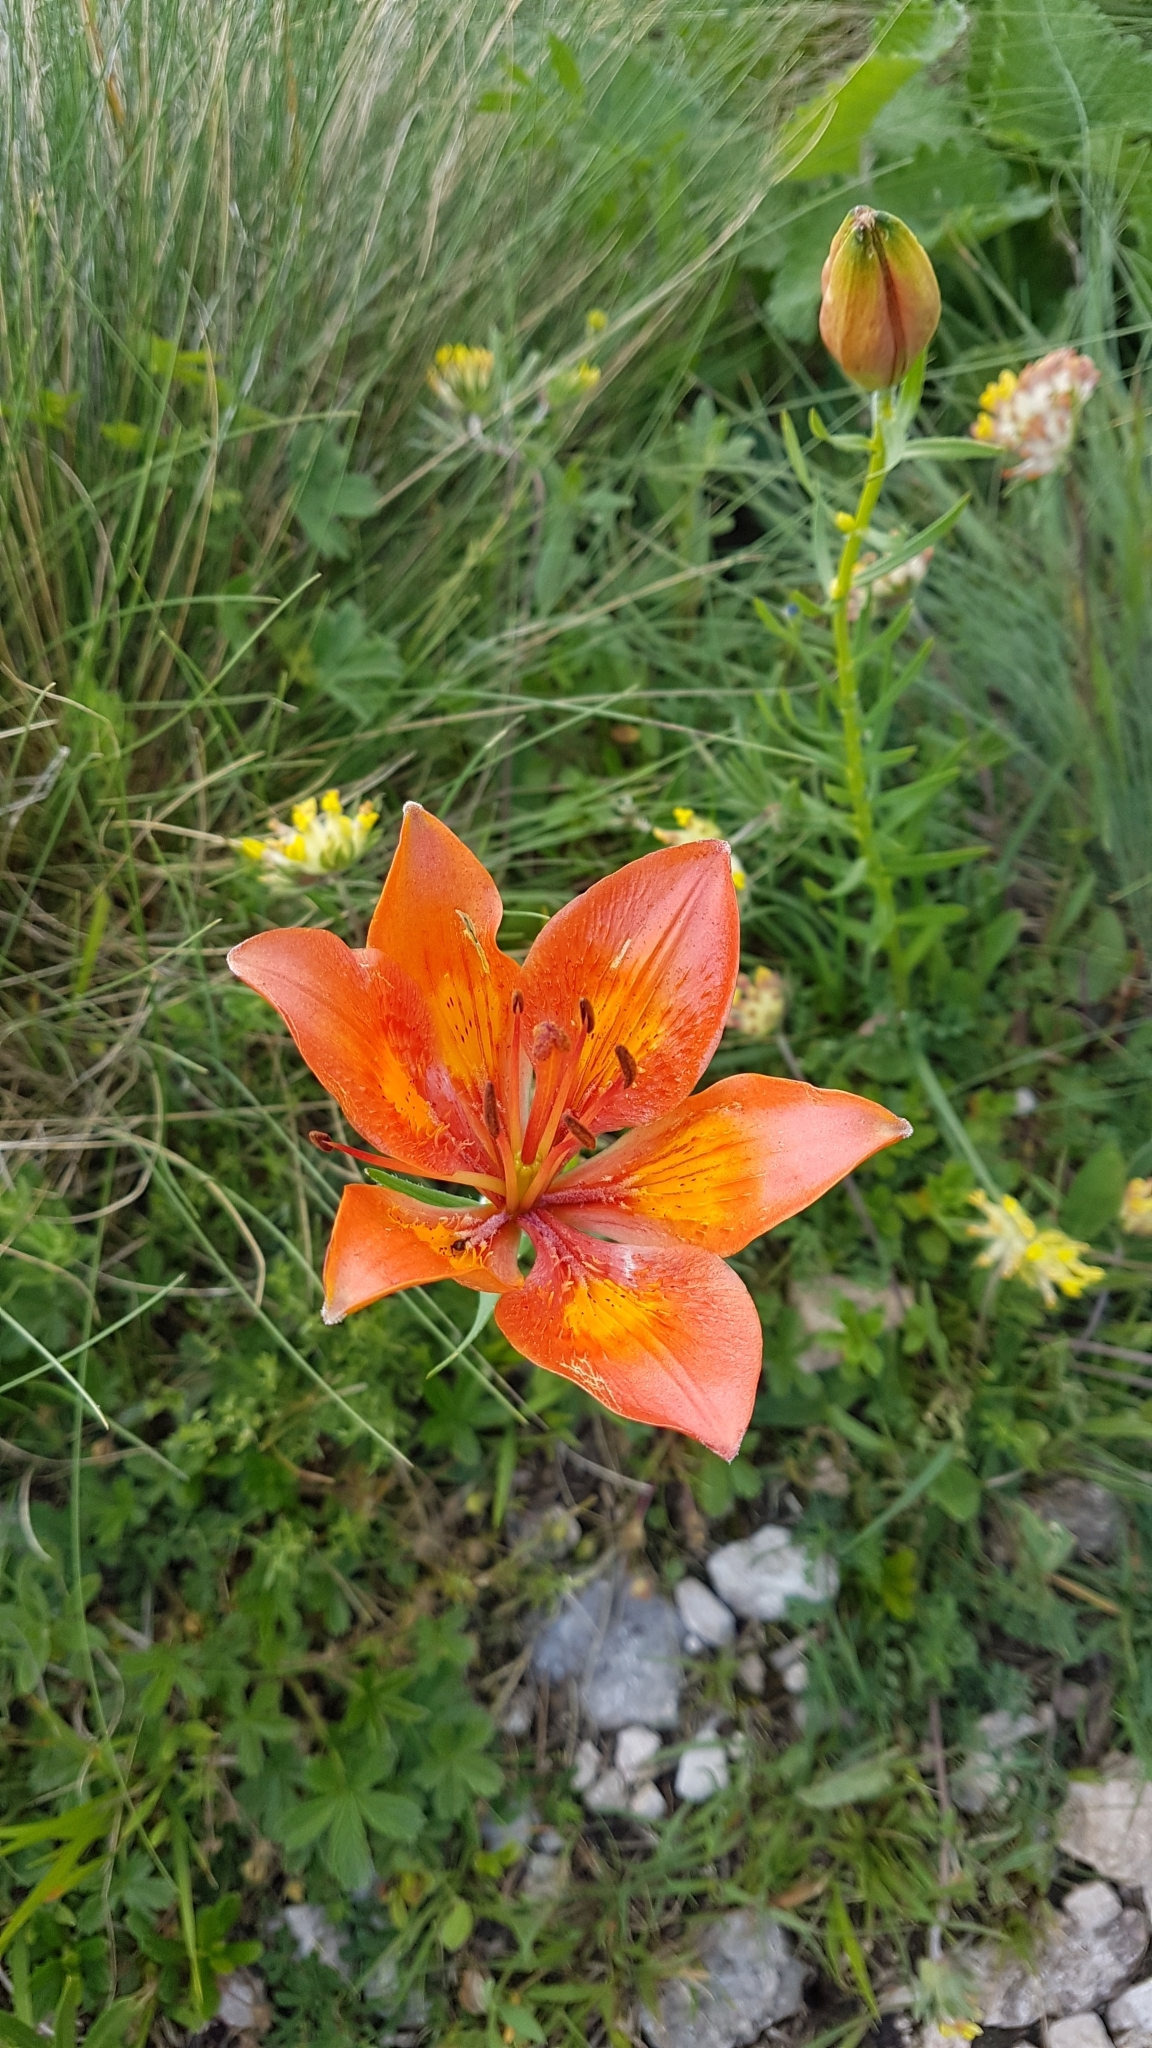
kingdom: Plantae
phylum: Tracheophyta
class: Liliopsida
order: Liliales
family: Liliaceae
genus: Lilium
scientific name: Lilium bulbiferum
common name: Orange lily
